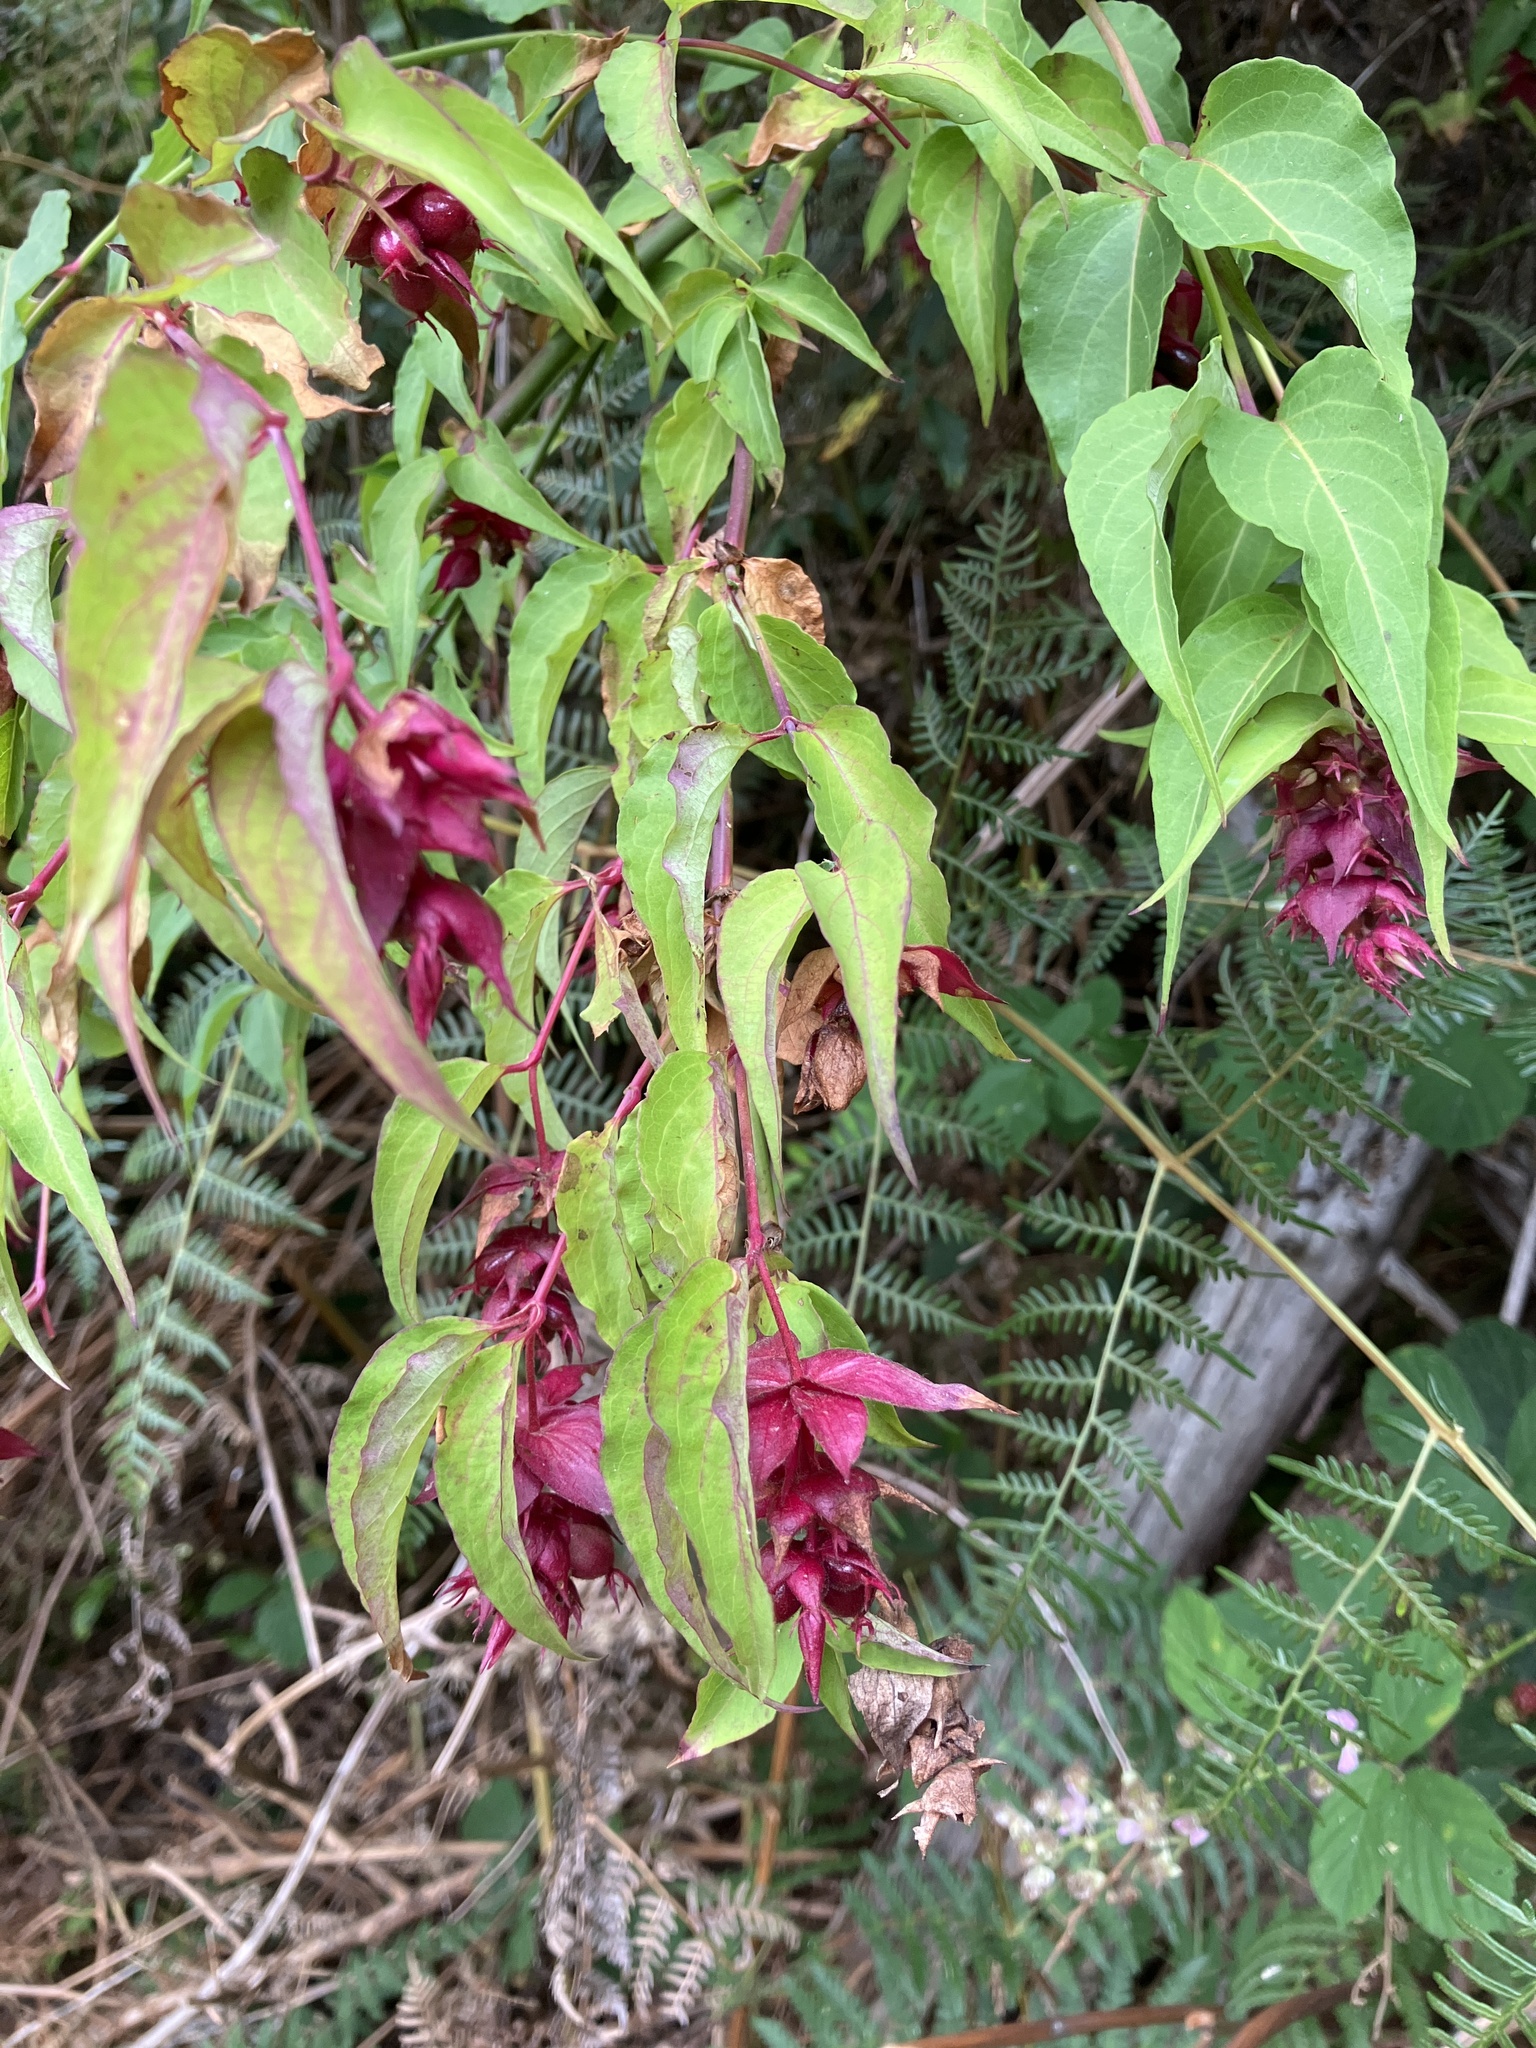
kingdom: Plantae
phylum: Tracheophyta
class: Magnoliopsida
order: Dipsacales
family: Caprifoliaceae
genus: Leycesteria
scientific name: Leycesteria formosa
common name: Himalayan honeysuckle
